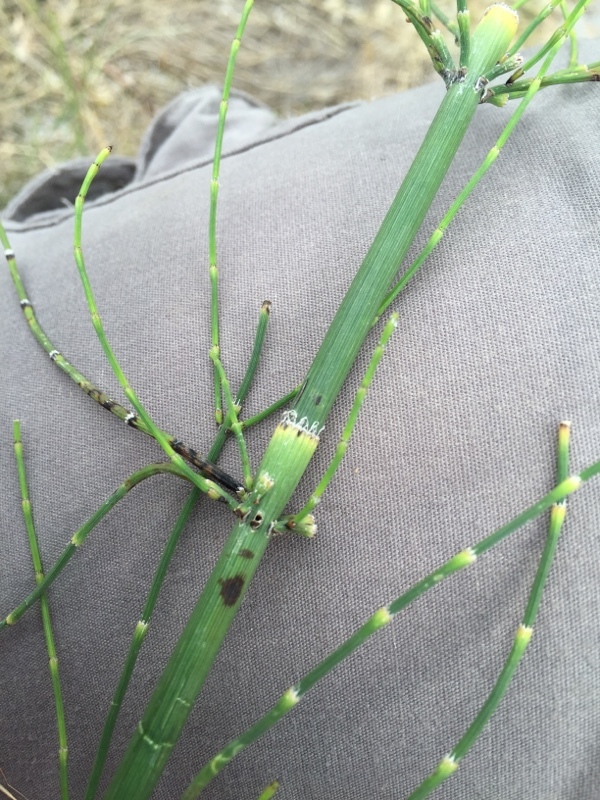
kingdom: Plantae
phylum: Tracheophyta
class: Polypodiopsida
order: Equisetales
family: Equisetaceae
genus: Equisetum
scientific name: Equisetum ramosissimum
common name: Branched horsetail
